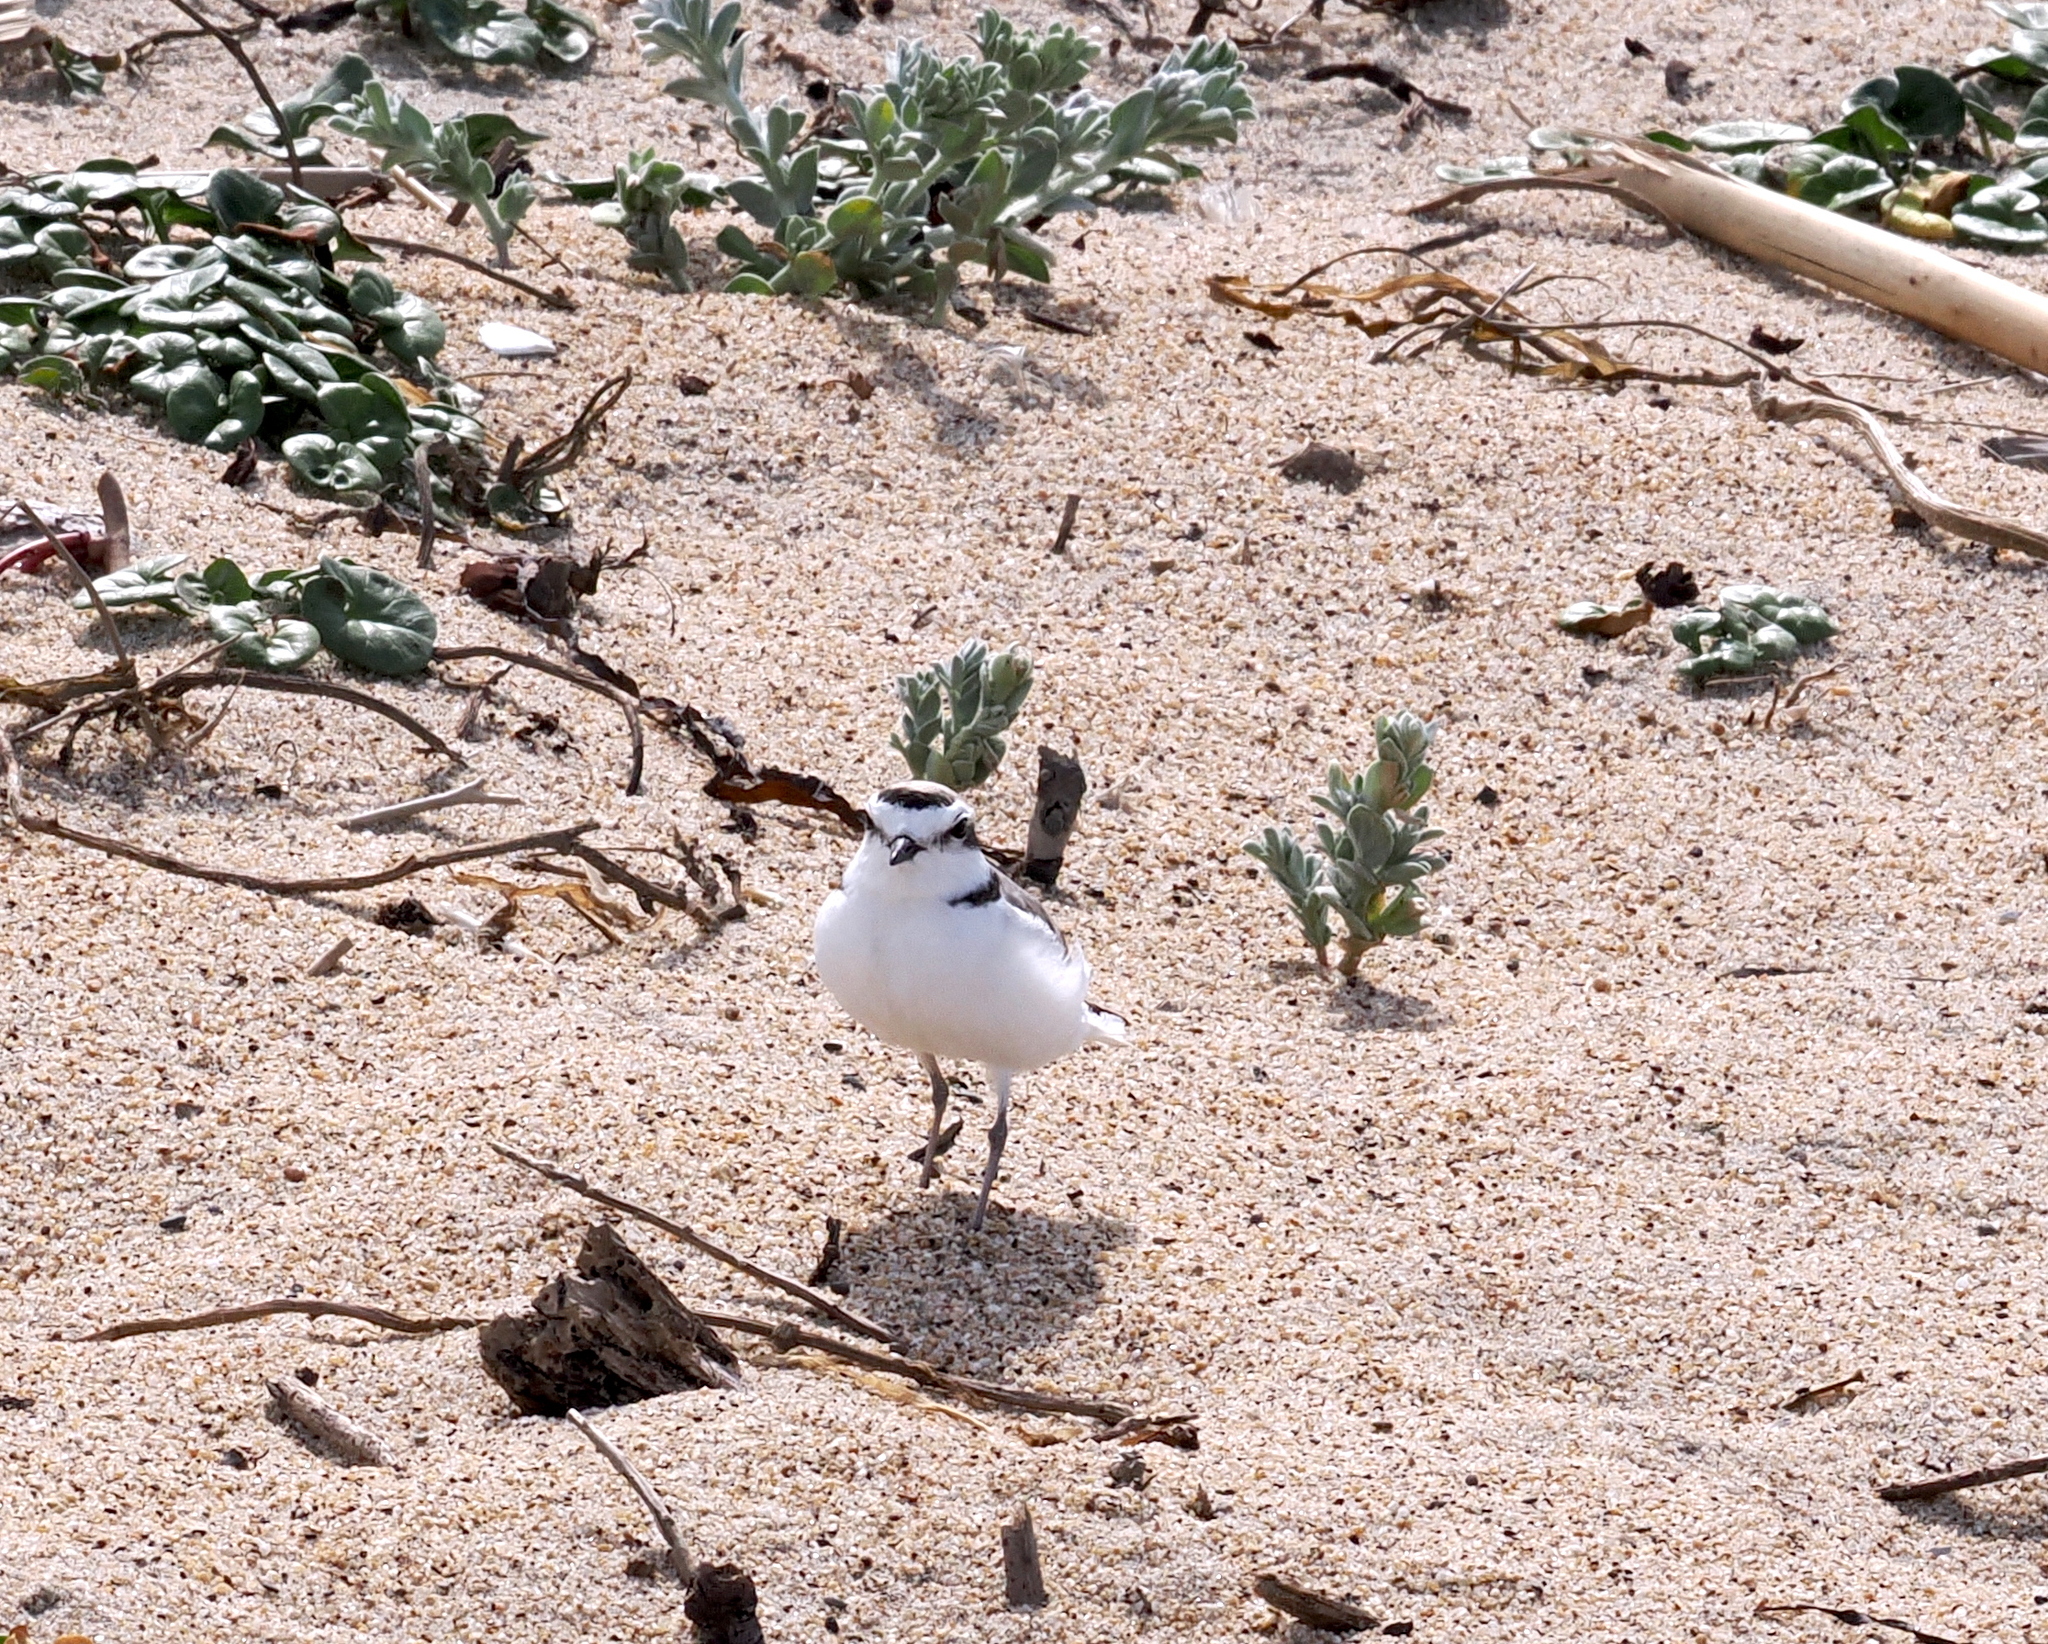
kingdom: Animalia
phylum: Chordata
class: Aves
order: Charadriiformes
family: Charadriidae
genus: Anarhynchus
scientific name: Anarhynchus
